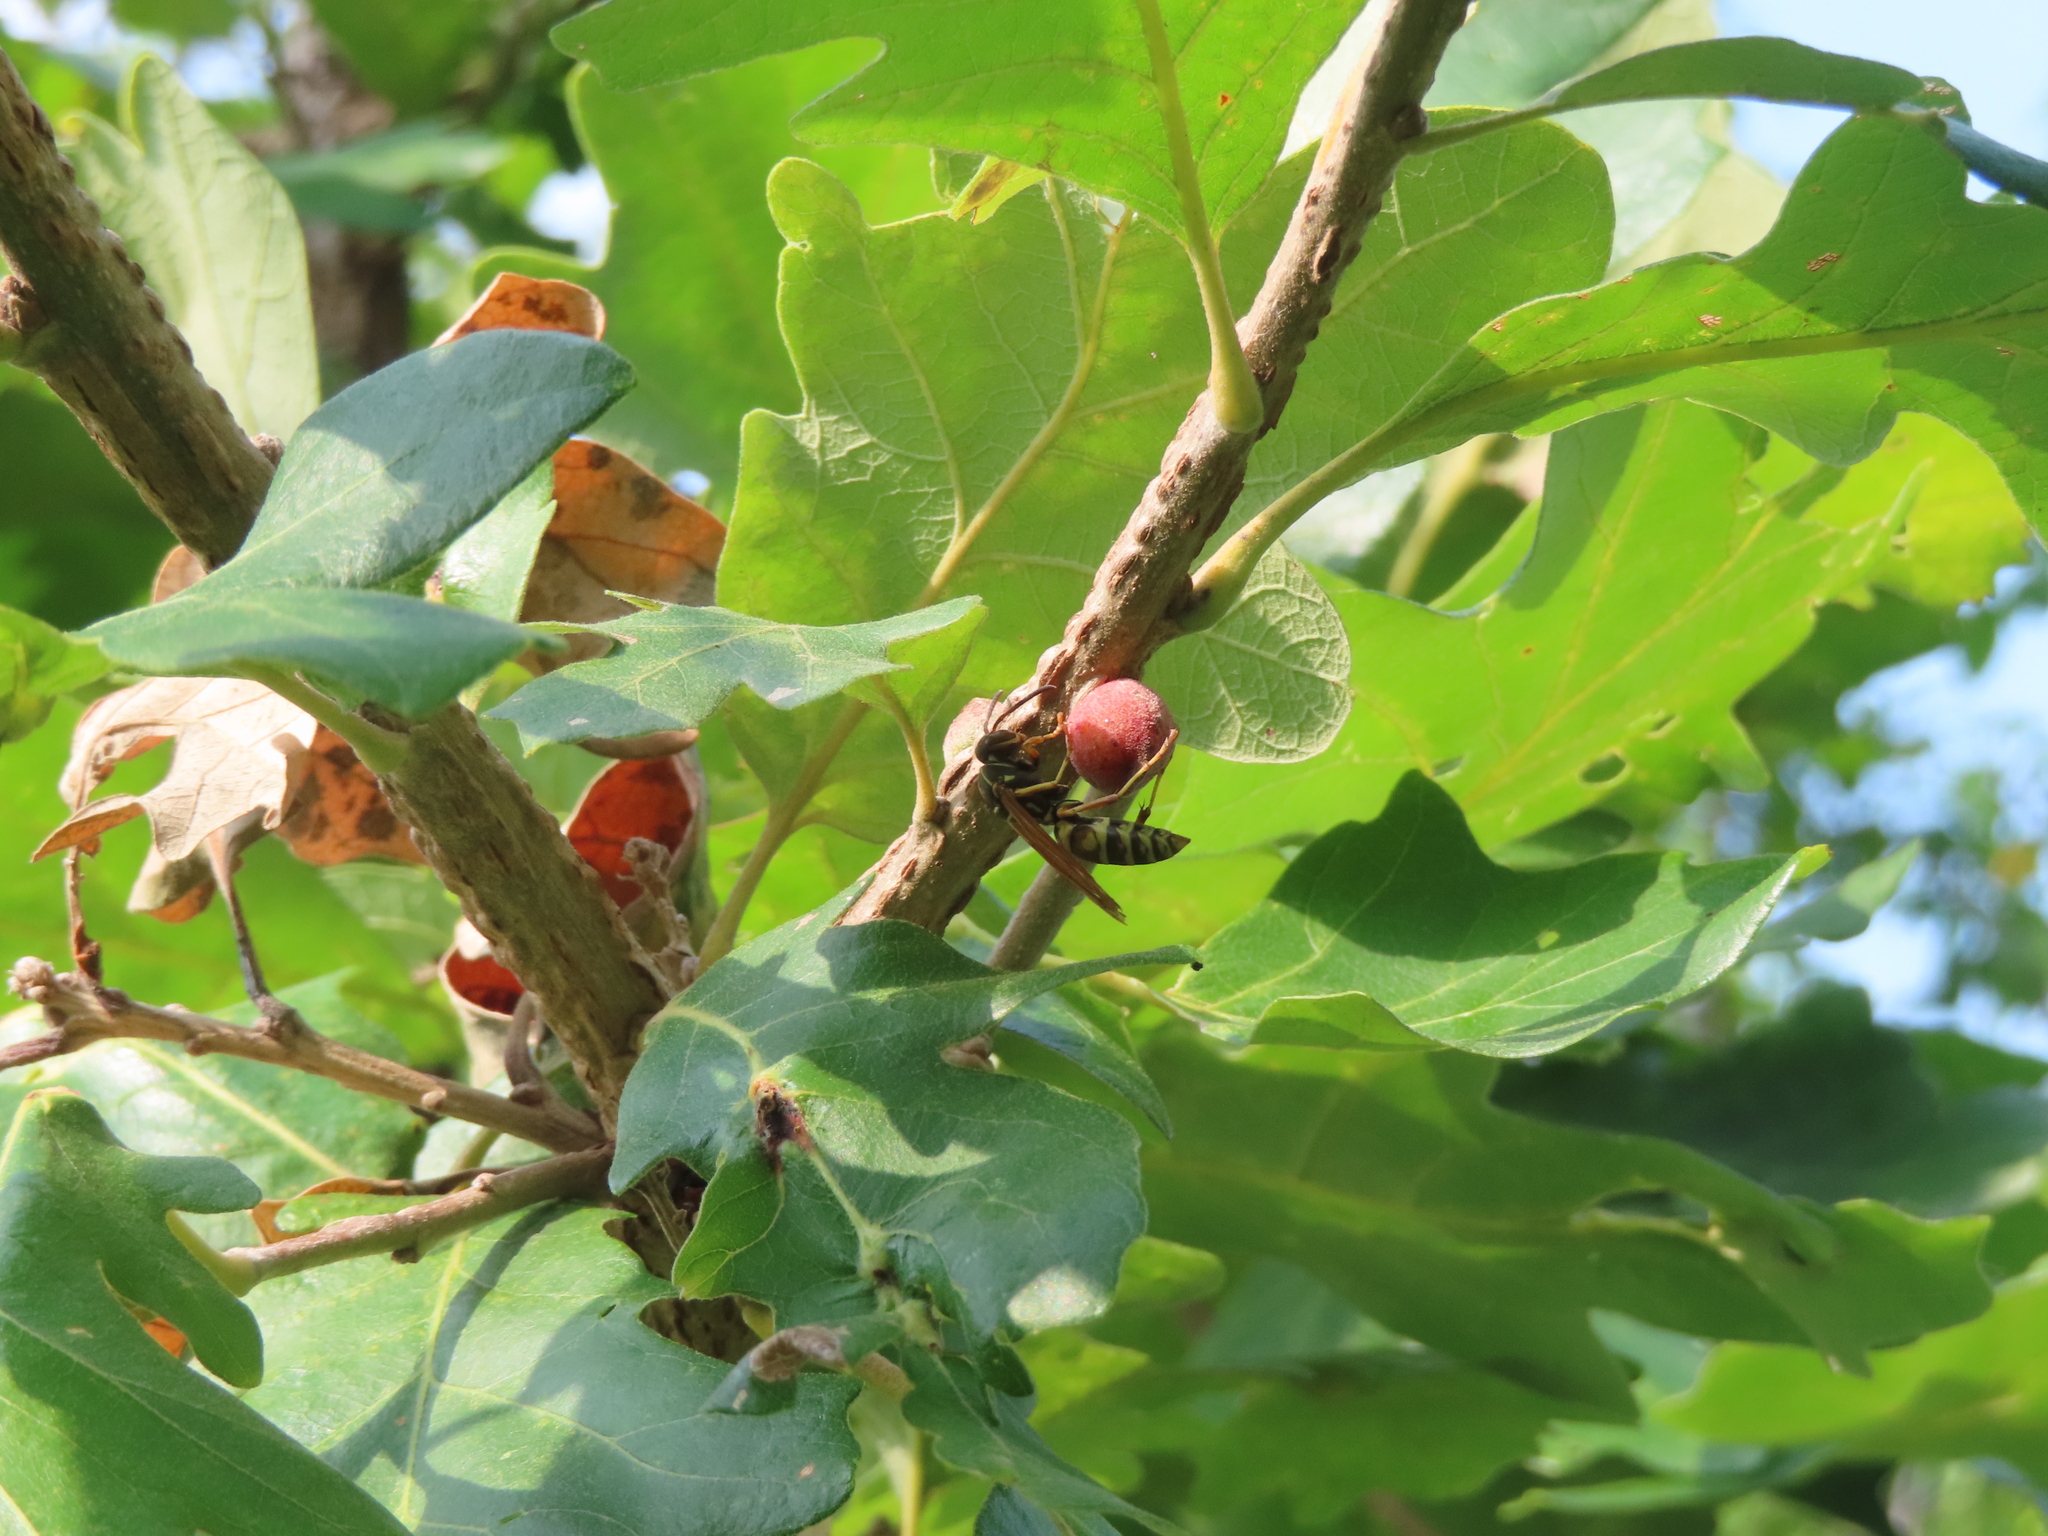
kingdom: Animalia
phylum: Arthropoda
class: Insecta
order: Hymenoptera
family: Cynipidae
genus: Disholcaspis
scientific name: Disholcaspis
